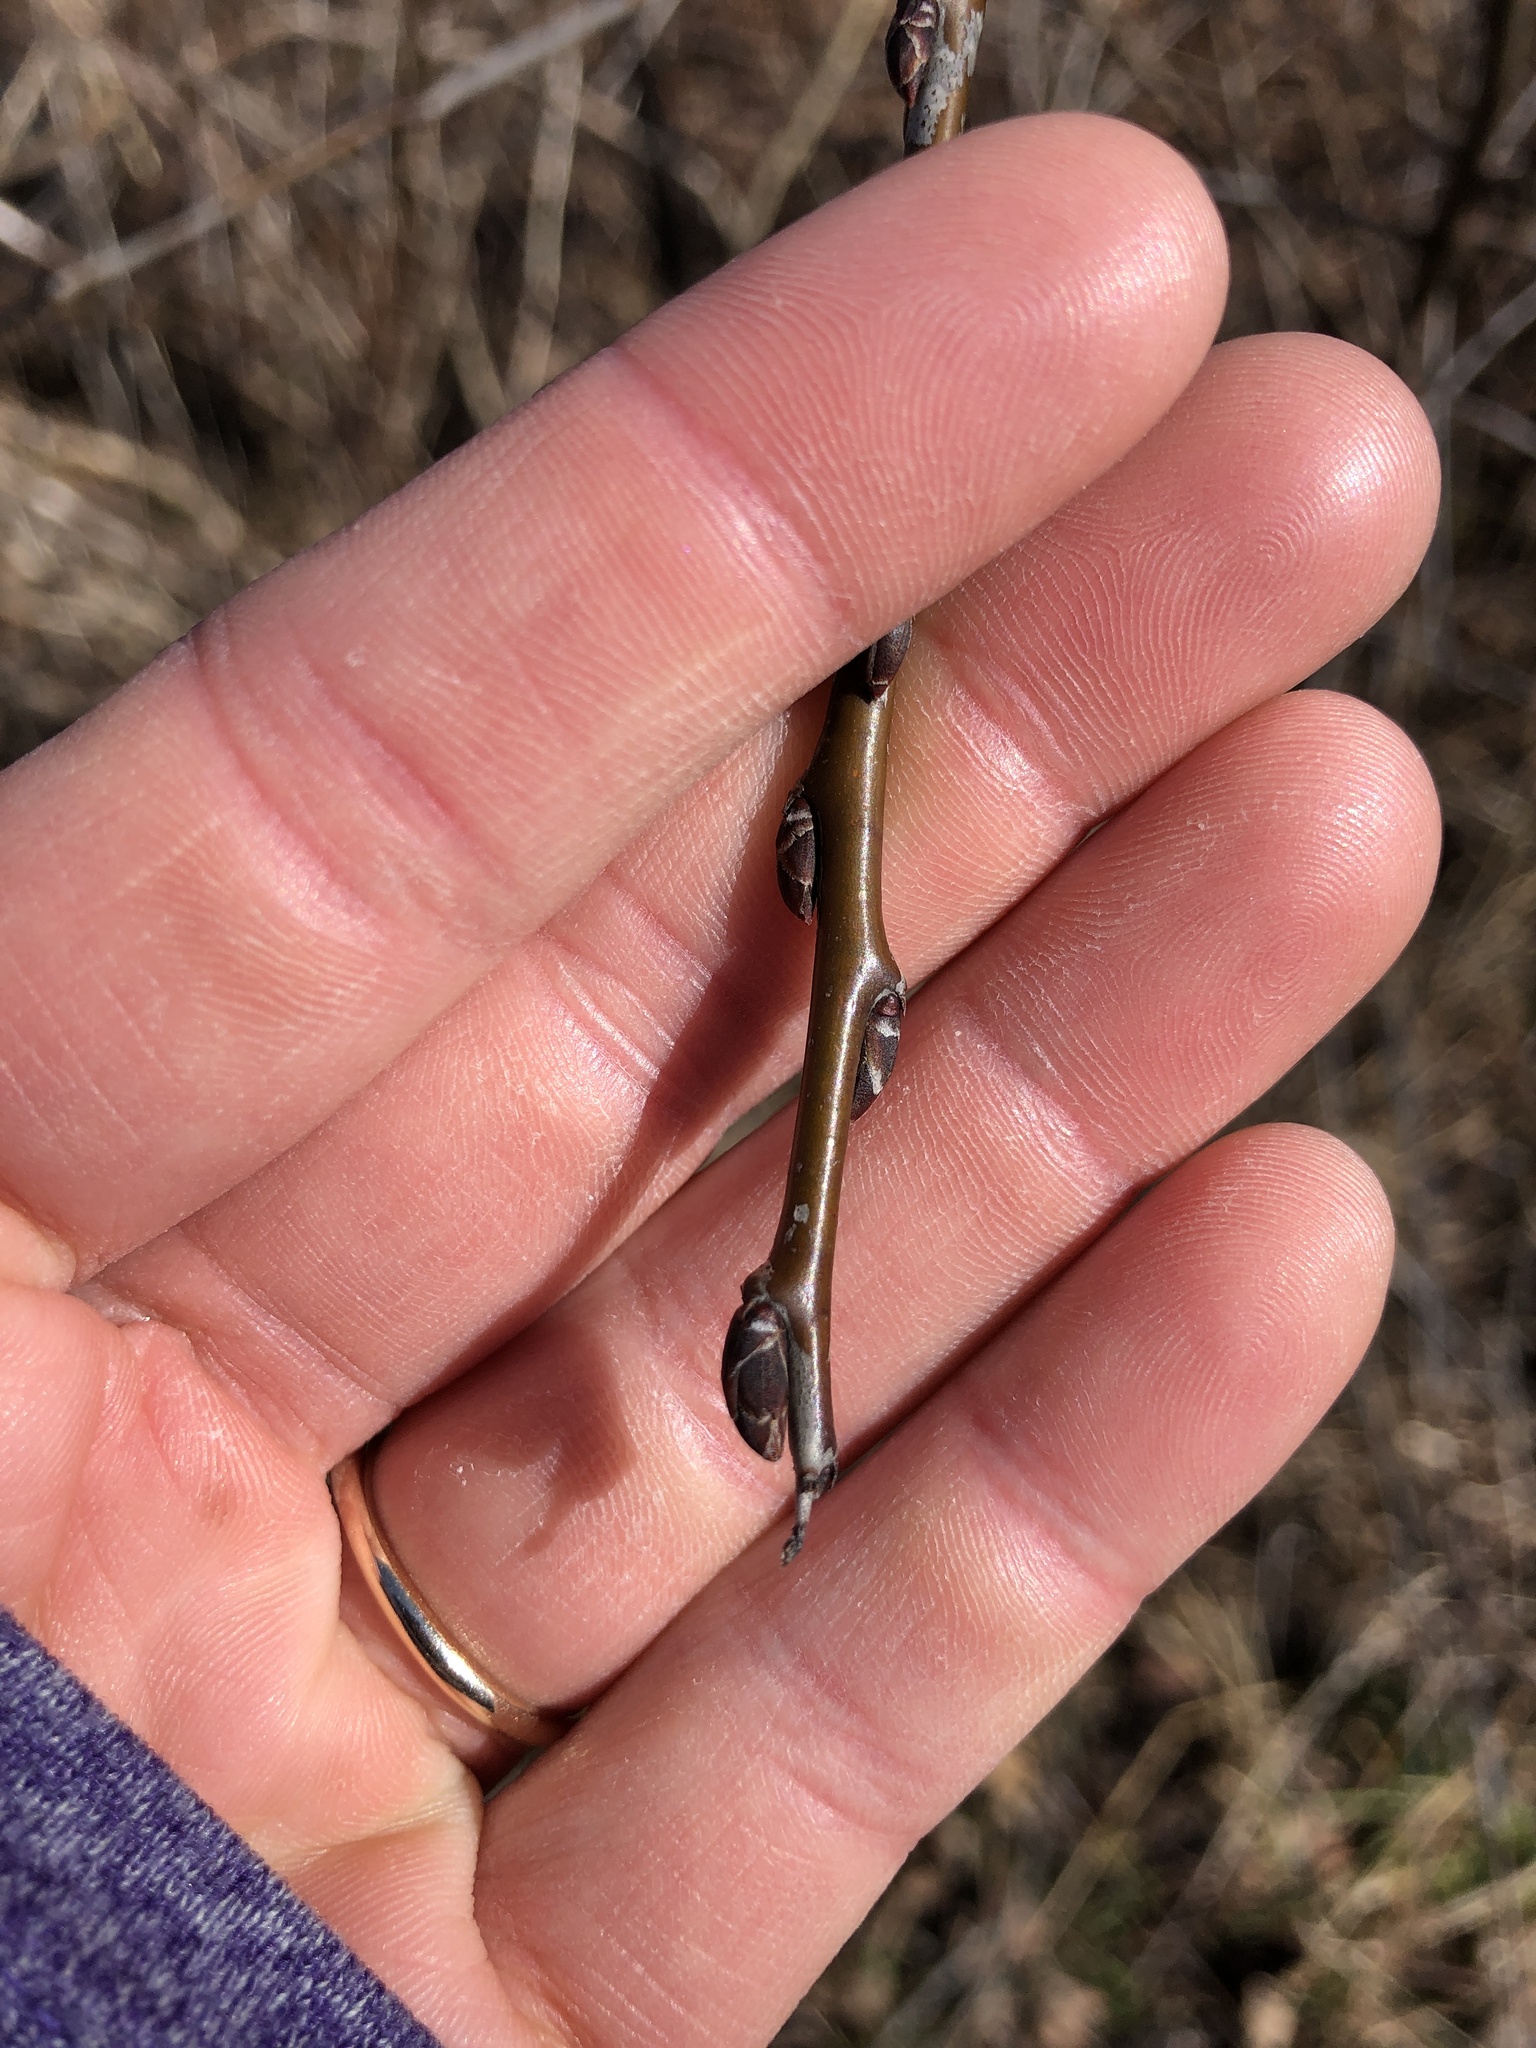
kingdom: Plantae
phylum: Tracheophyta
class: Magnoliopsida
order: Rosales
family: Rhamnaceae
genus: Rhamnus
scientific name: Rhamnus cathartica
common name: Common buckthorn
